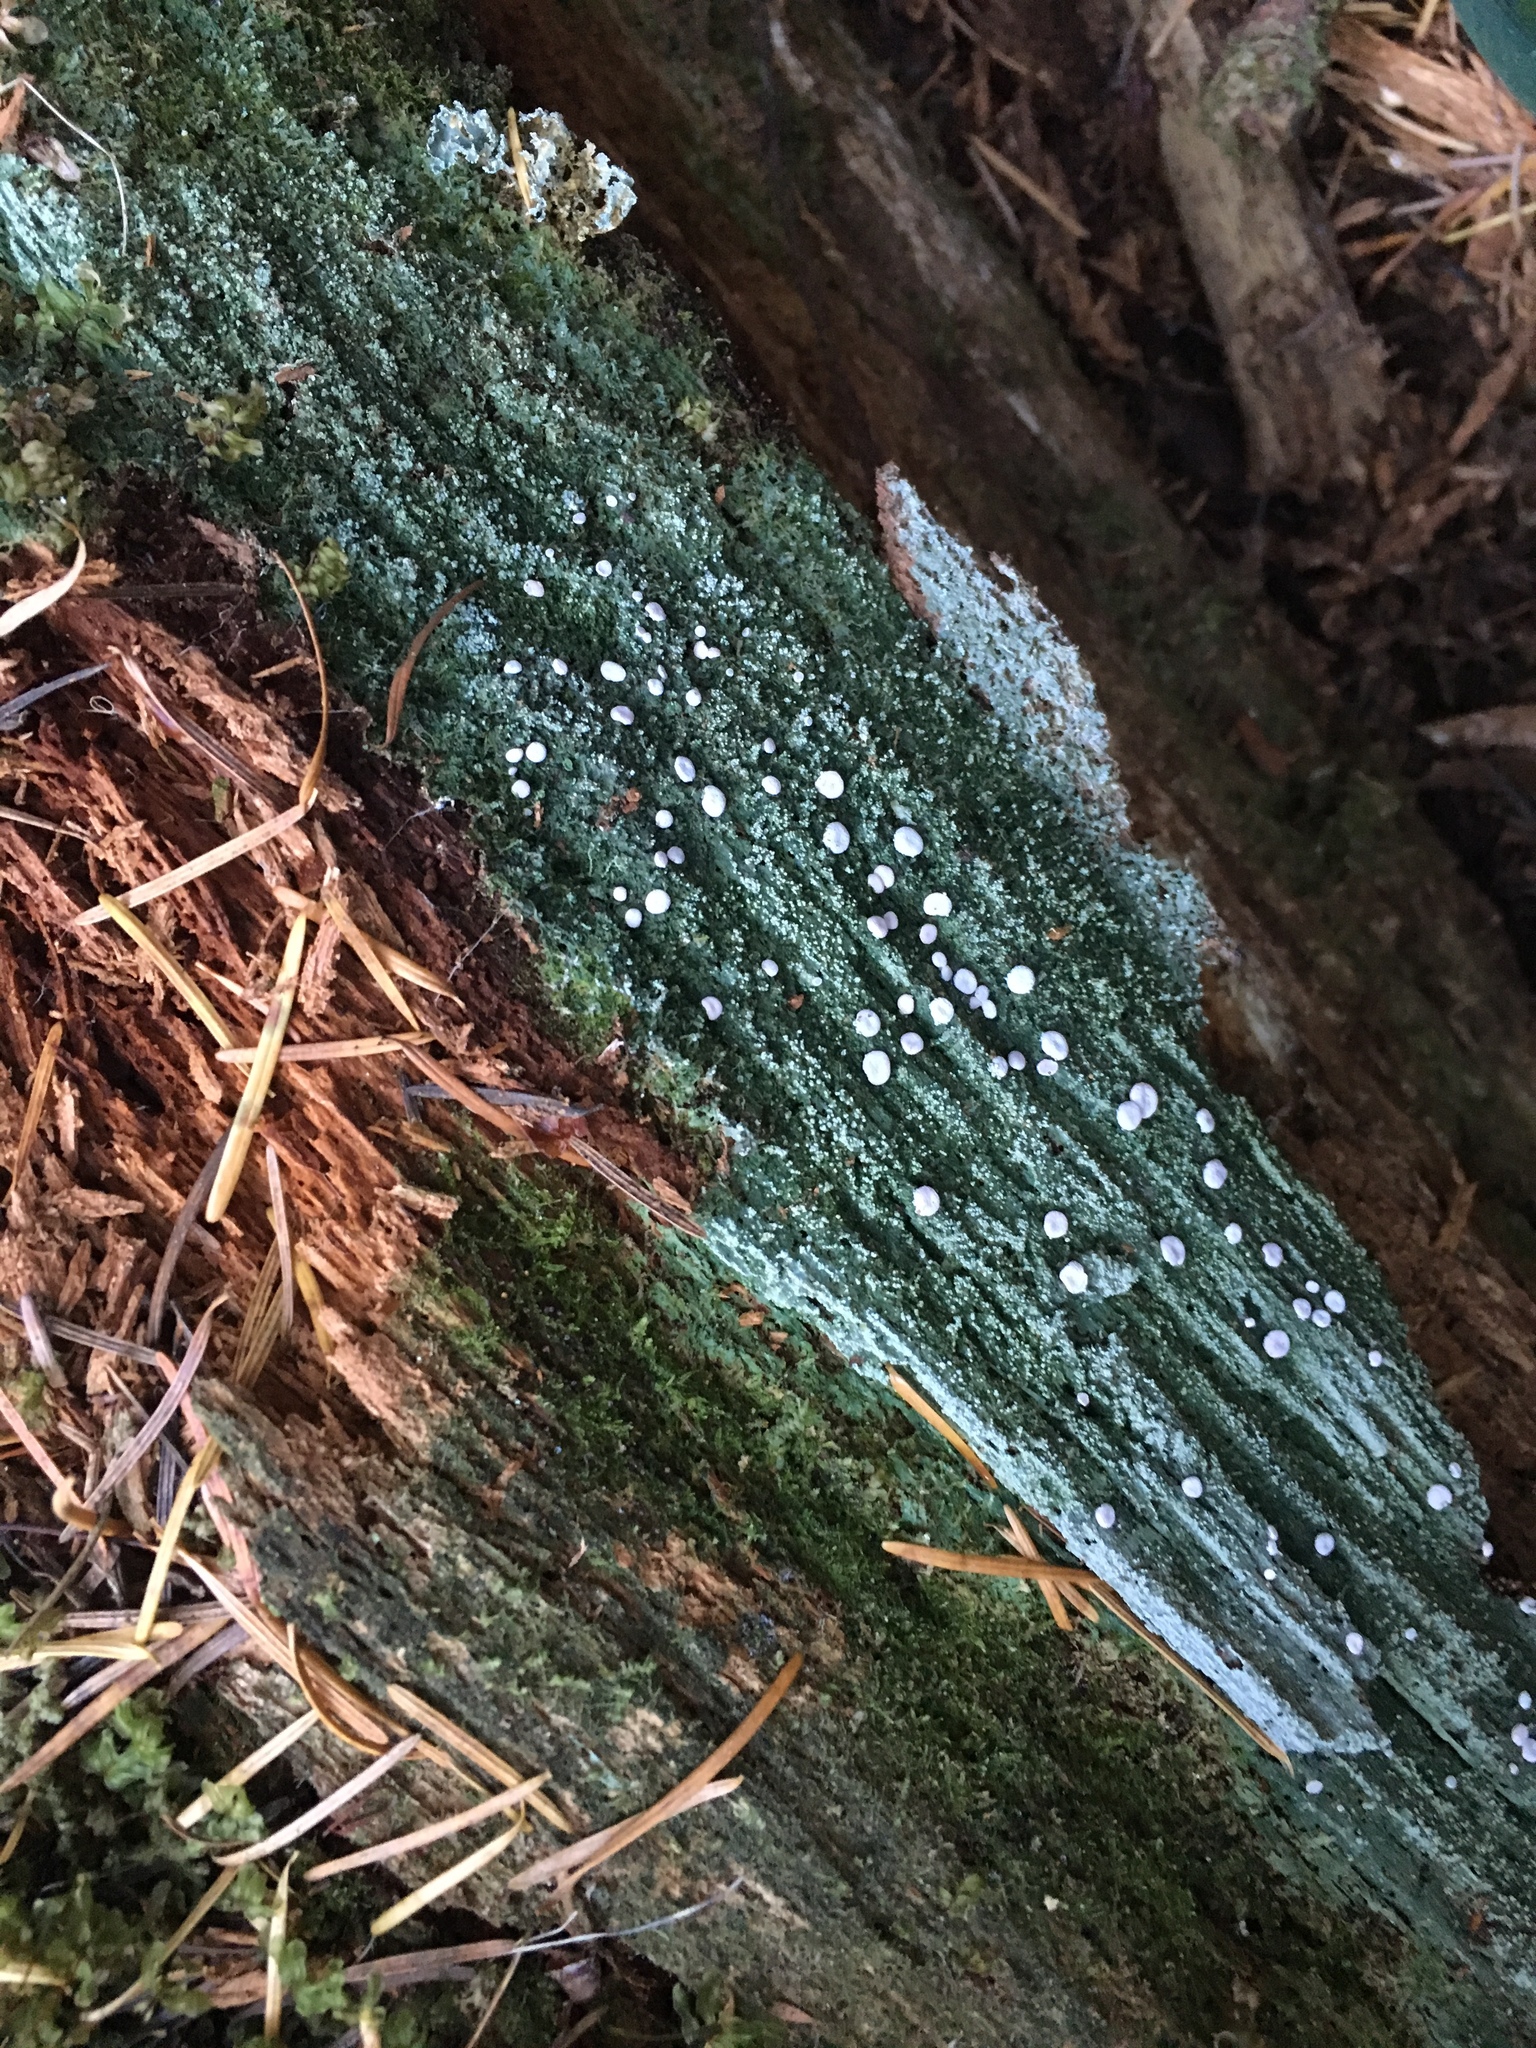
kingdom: Fungi
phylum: Ascomycota
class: Lecanoromycetes
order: Pertusariales
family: Icmadophilaceae
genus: Icmadophila
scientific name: Icmadophila ericetorum
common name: Candy lichen
